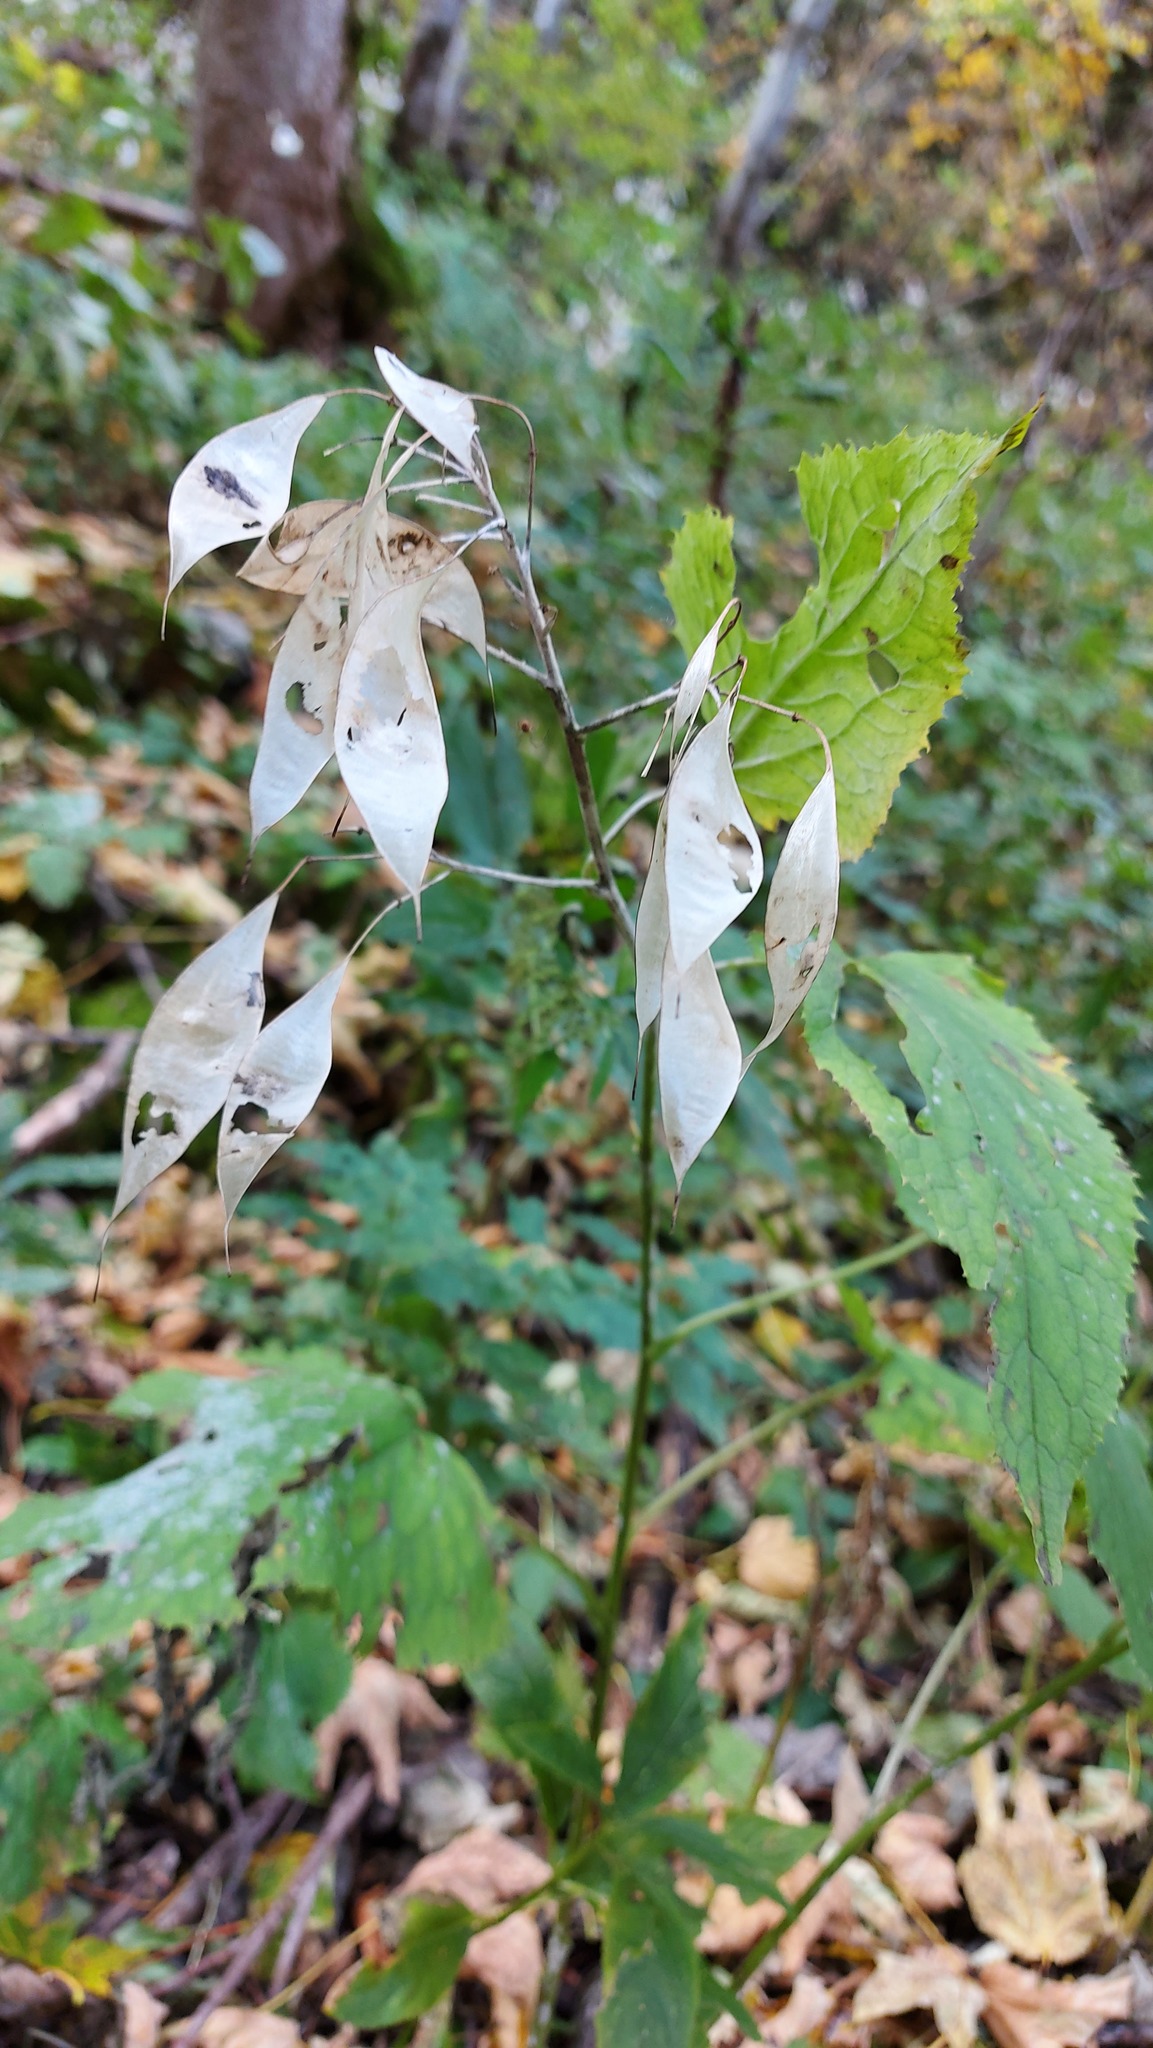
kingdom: Plantae
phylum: Tracheophyta
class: Magnoliopsida
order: Brassicales
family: Brassicaceae
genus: Lunaria
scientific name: Lunaria rediviva
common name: Perennial honesty
